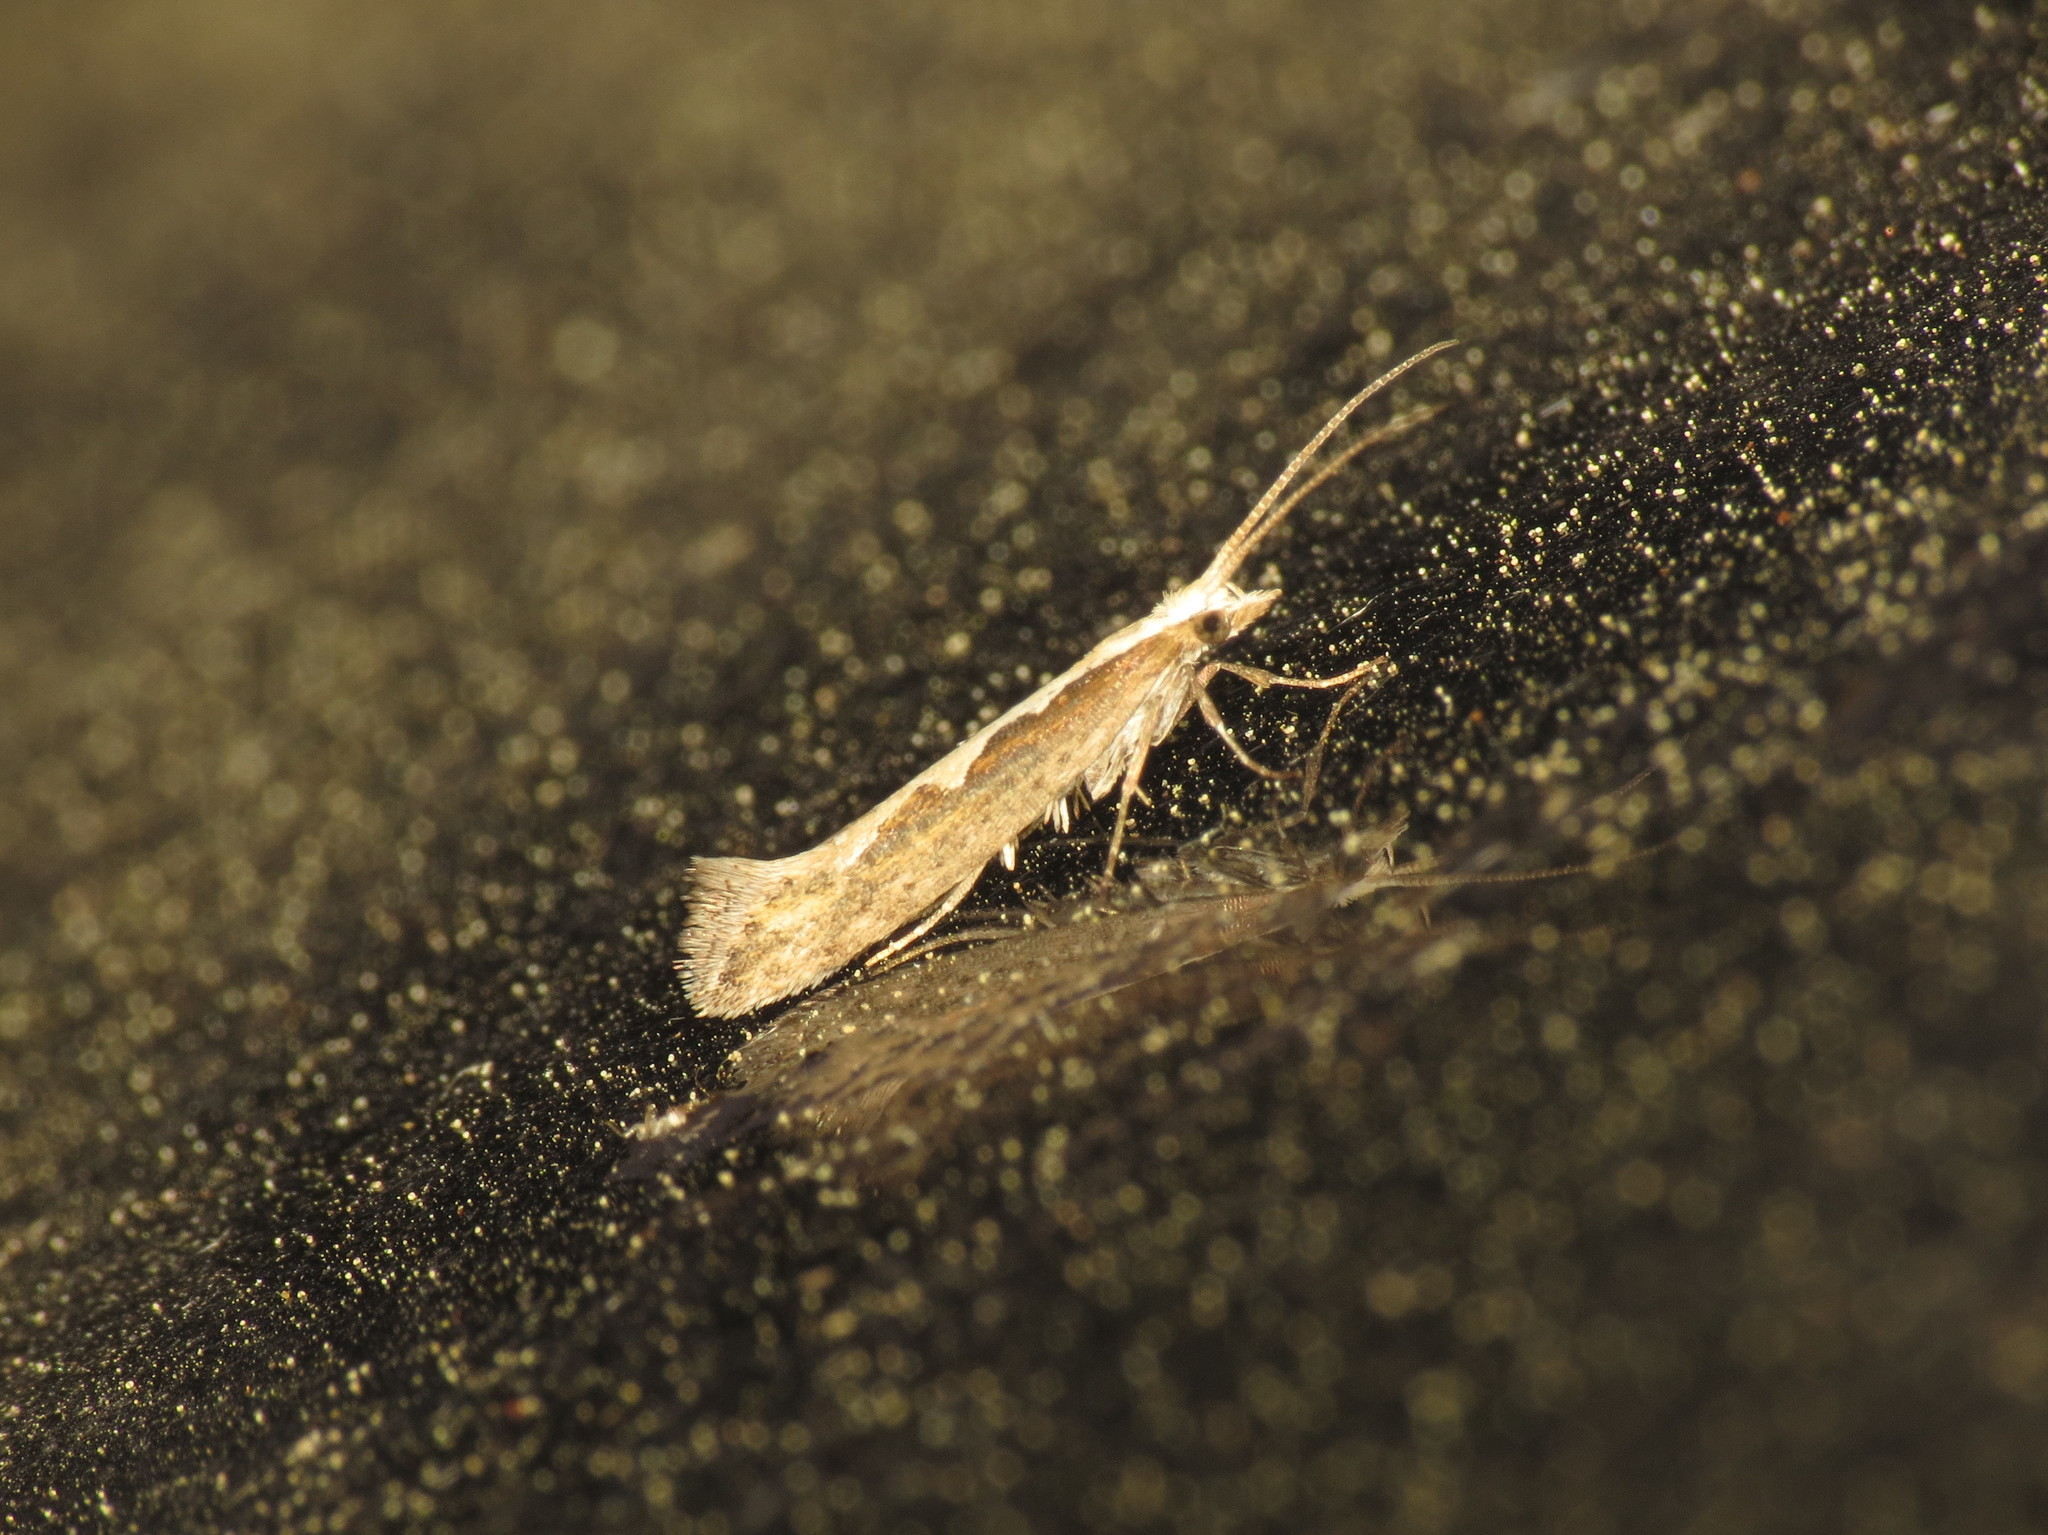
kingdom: Animalia
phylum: Arthropoda
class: Insecta
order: Lepidoptera
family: Plutellidae
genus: Plutella
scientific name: Plutella xylostella
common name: Diamond-back moth
